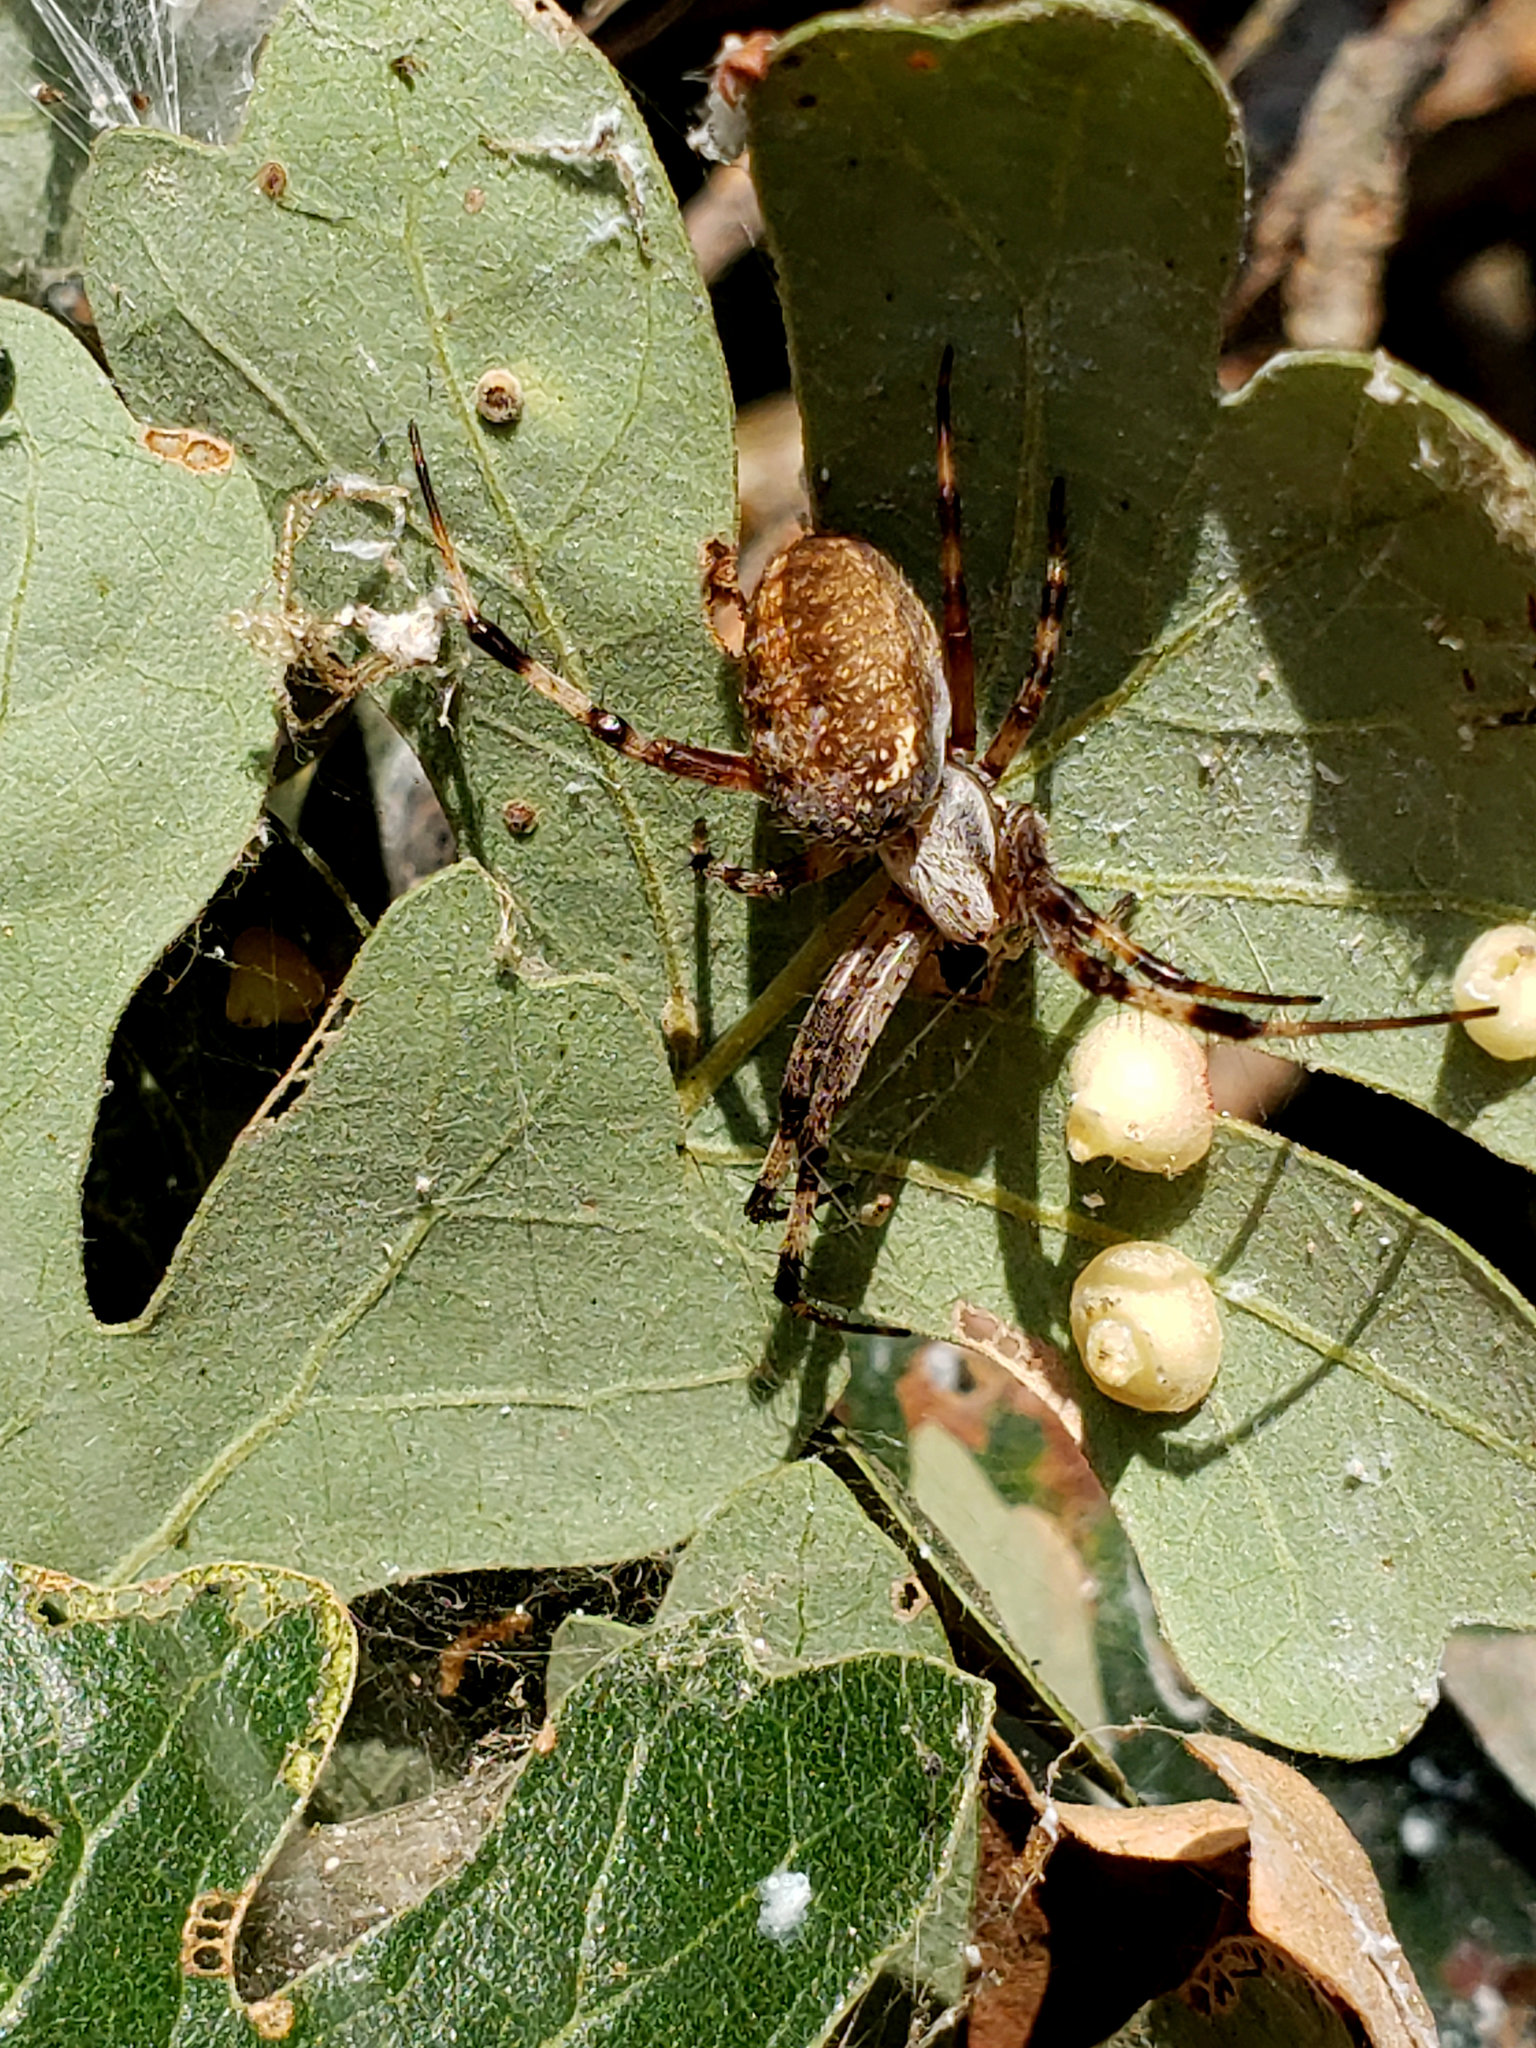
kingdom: Animalia
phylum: Arthropoda
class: Arachnida
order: Araneae
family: Araneidae
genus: Neoscona
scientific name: Neoscona oaxacensis
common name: Orb weavers
